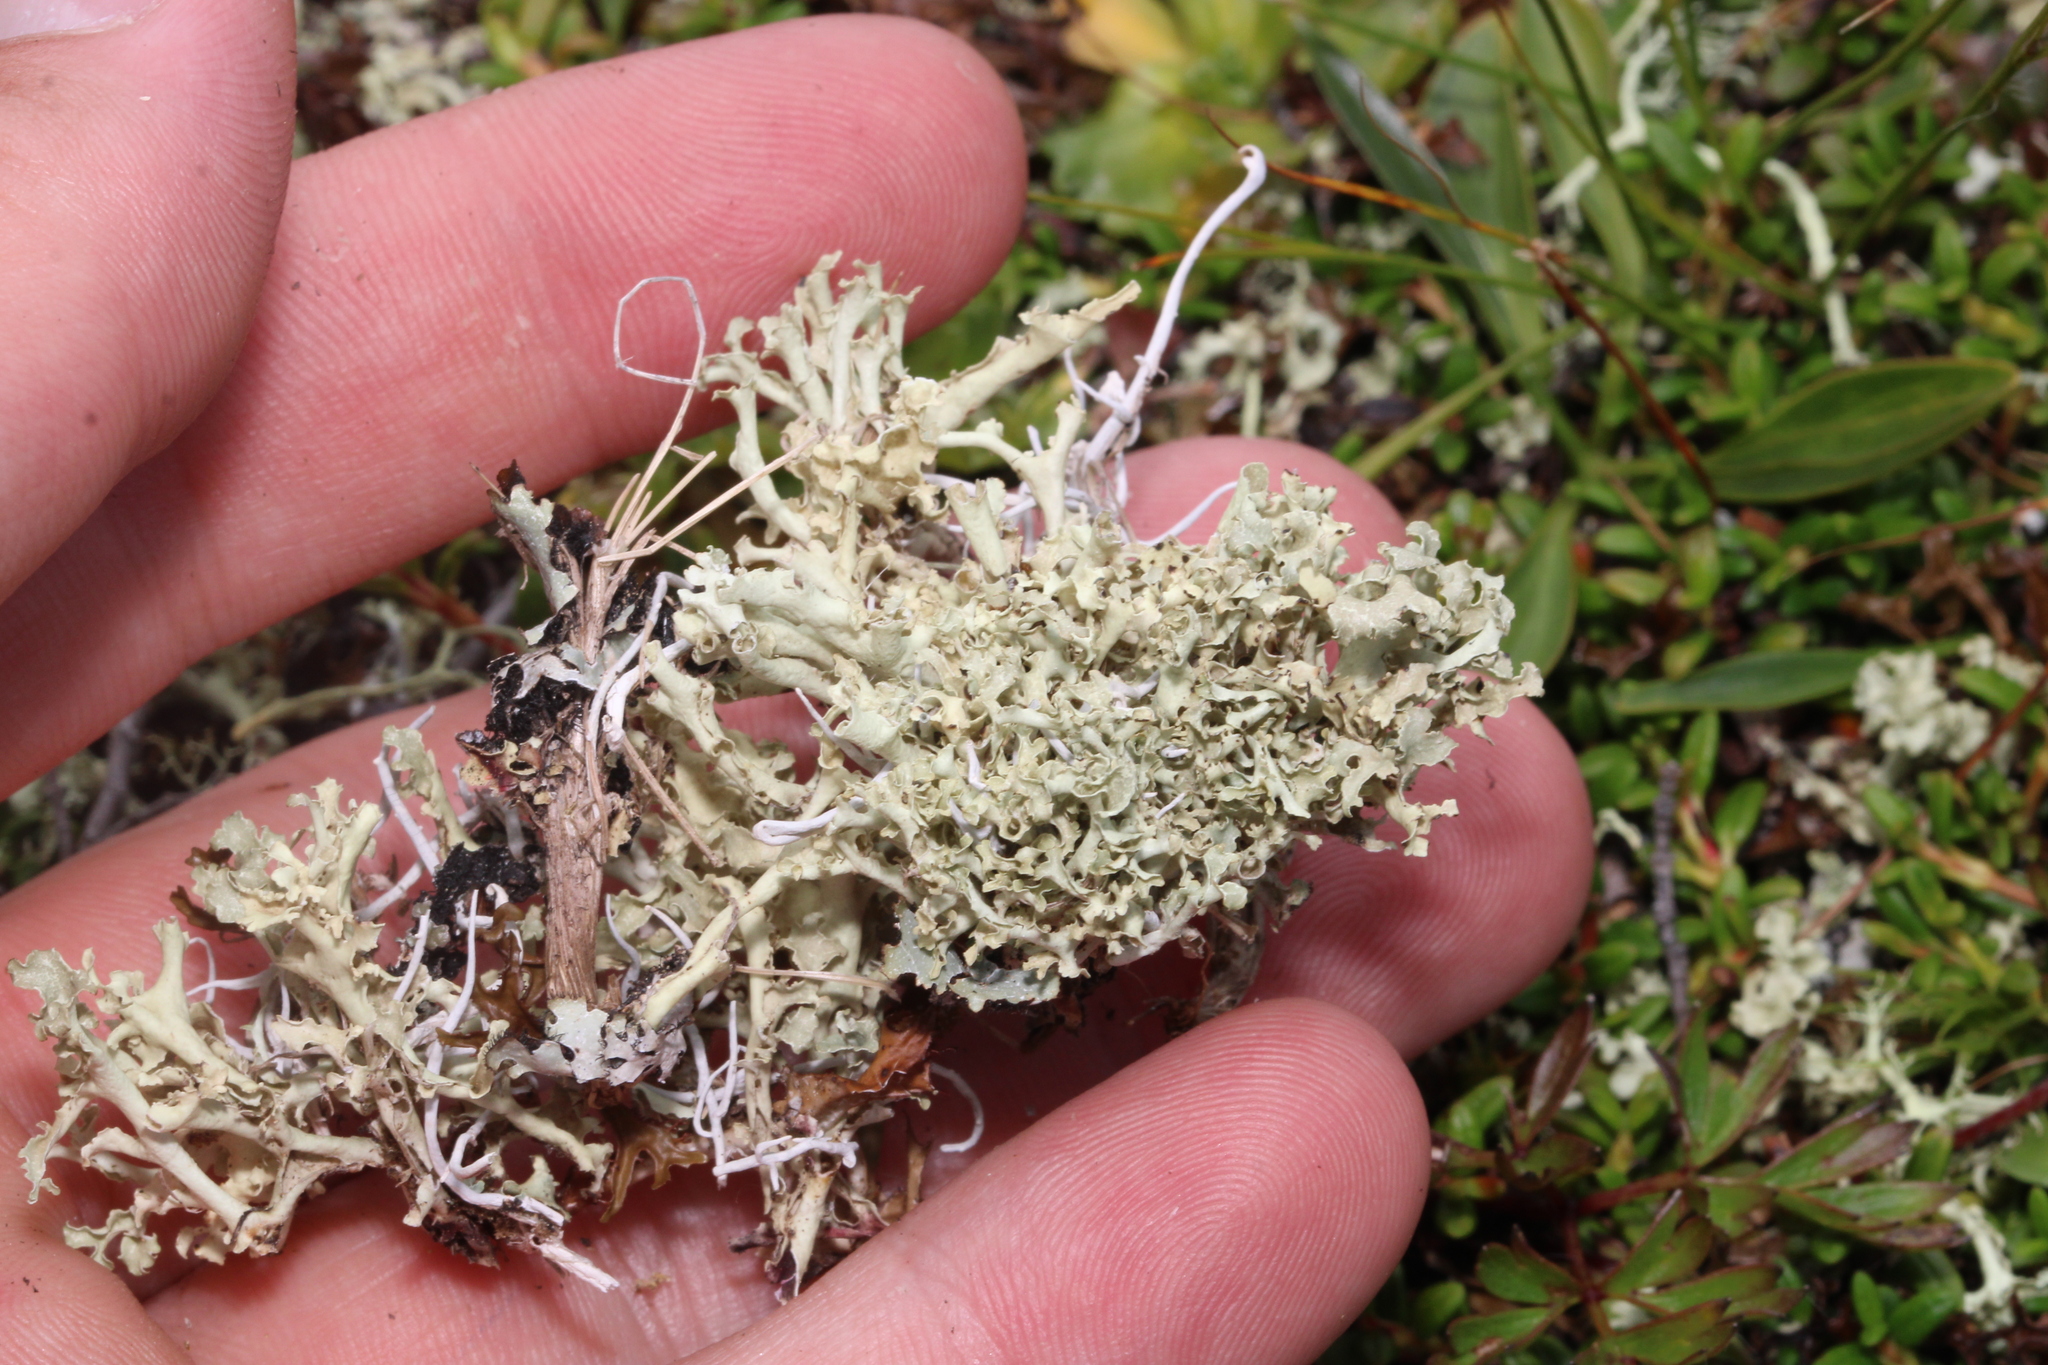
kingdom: Fungi
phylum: Ascomycota
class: Lecanoromycetes
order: Lecanorales
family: Parmeliaceae
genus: Nephromopsis
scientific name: Nephromopsis cucullata
